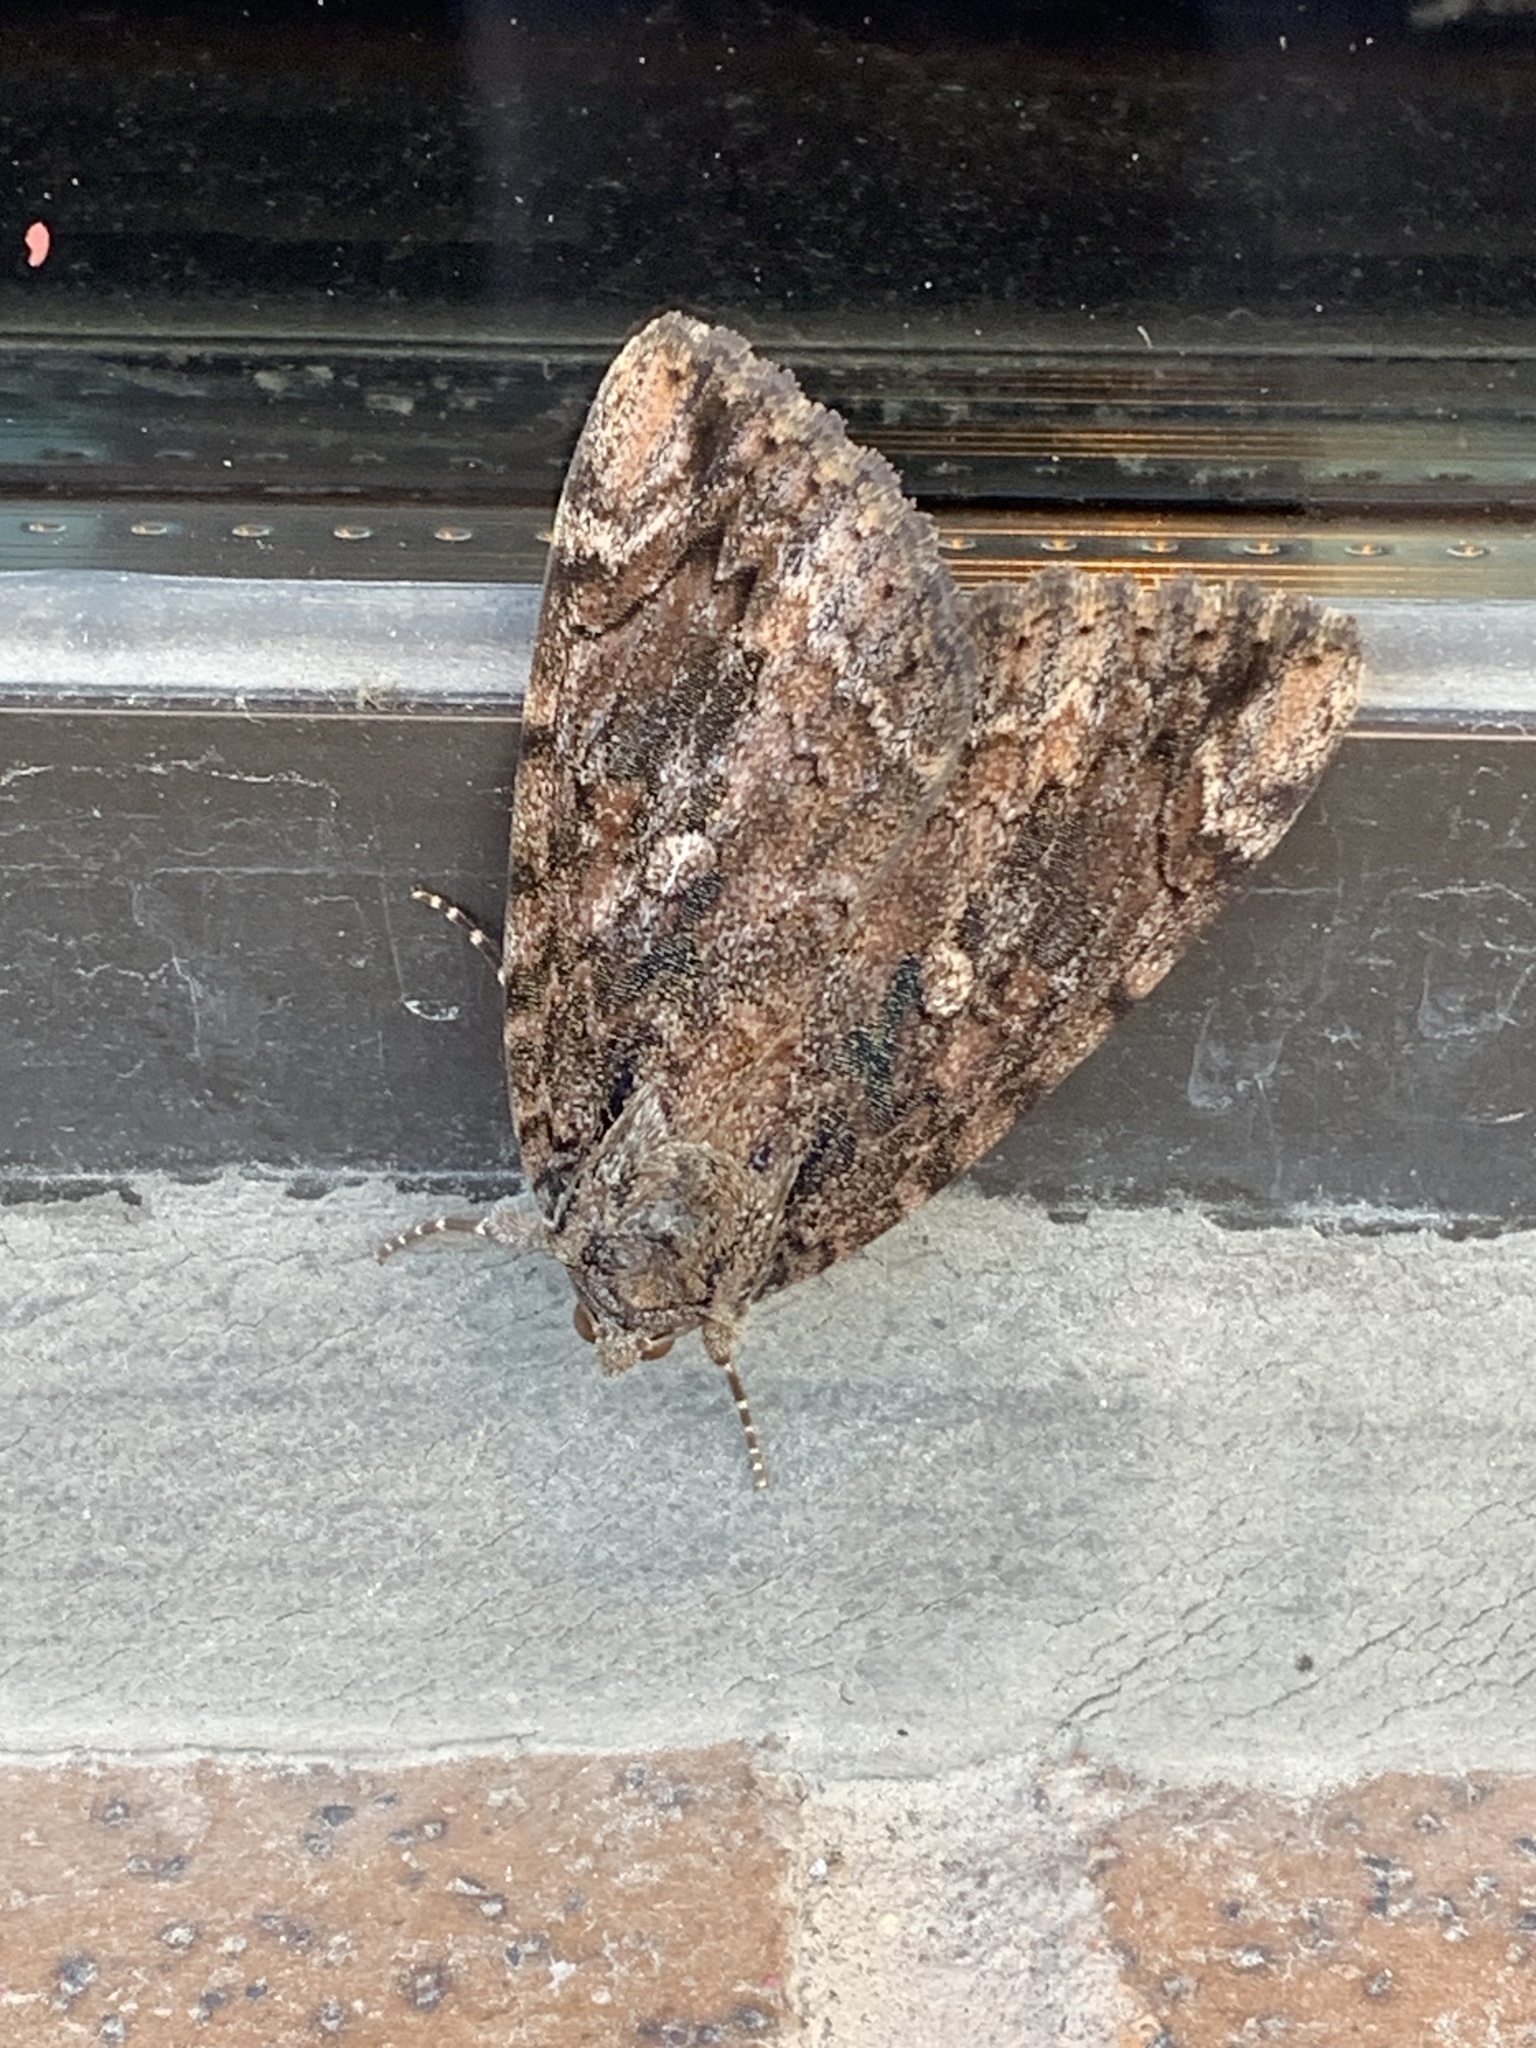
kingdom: Animalia
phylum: Arthropoda
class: Insecta
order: Lepidoptera
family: Erebidae
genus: Catocala
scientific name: Catocala innubens
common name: Betrothed underwing
